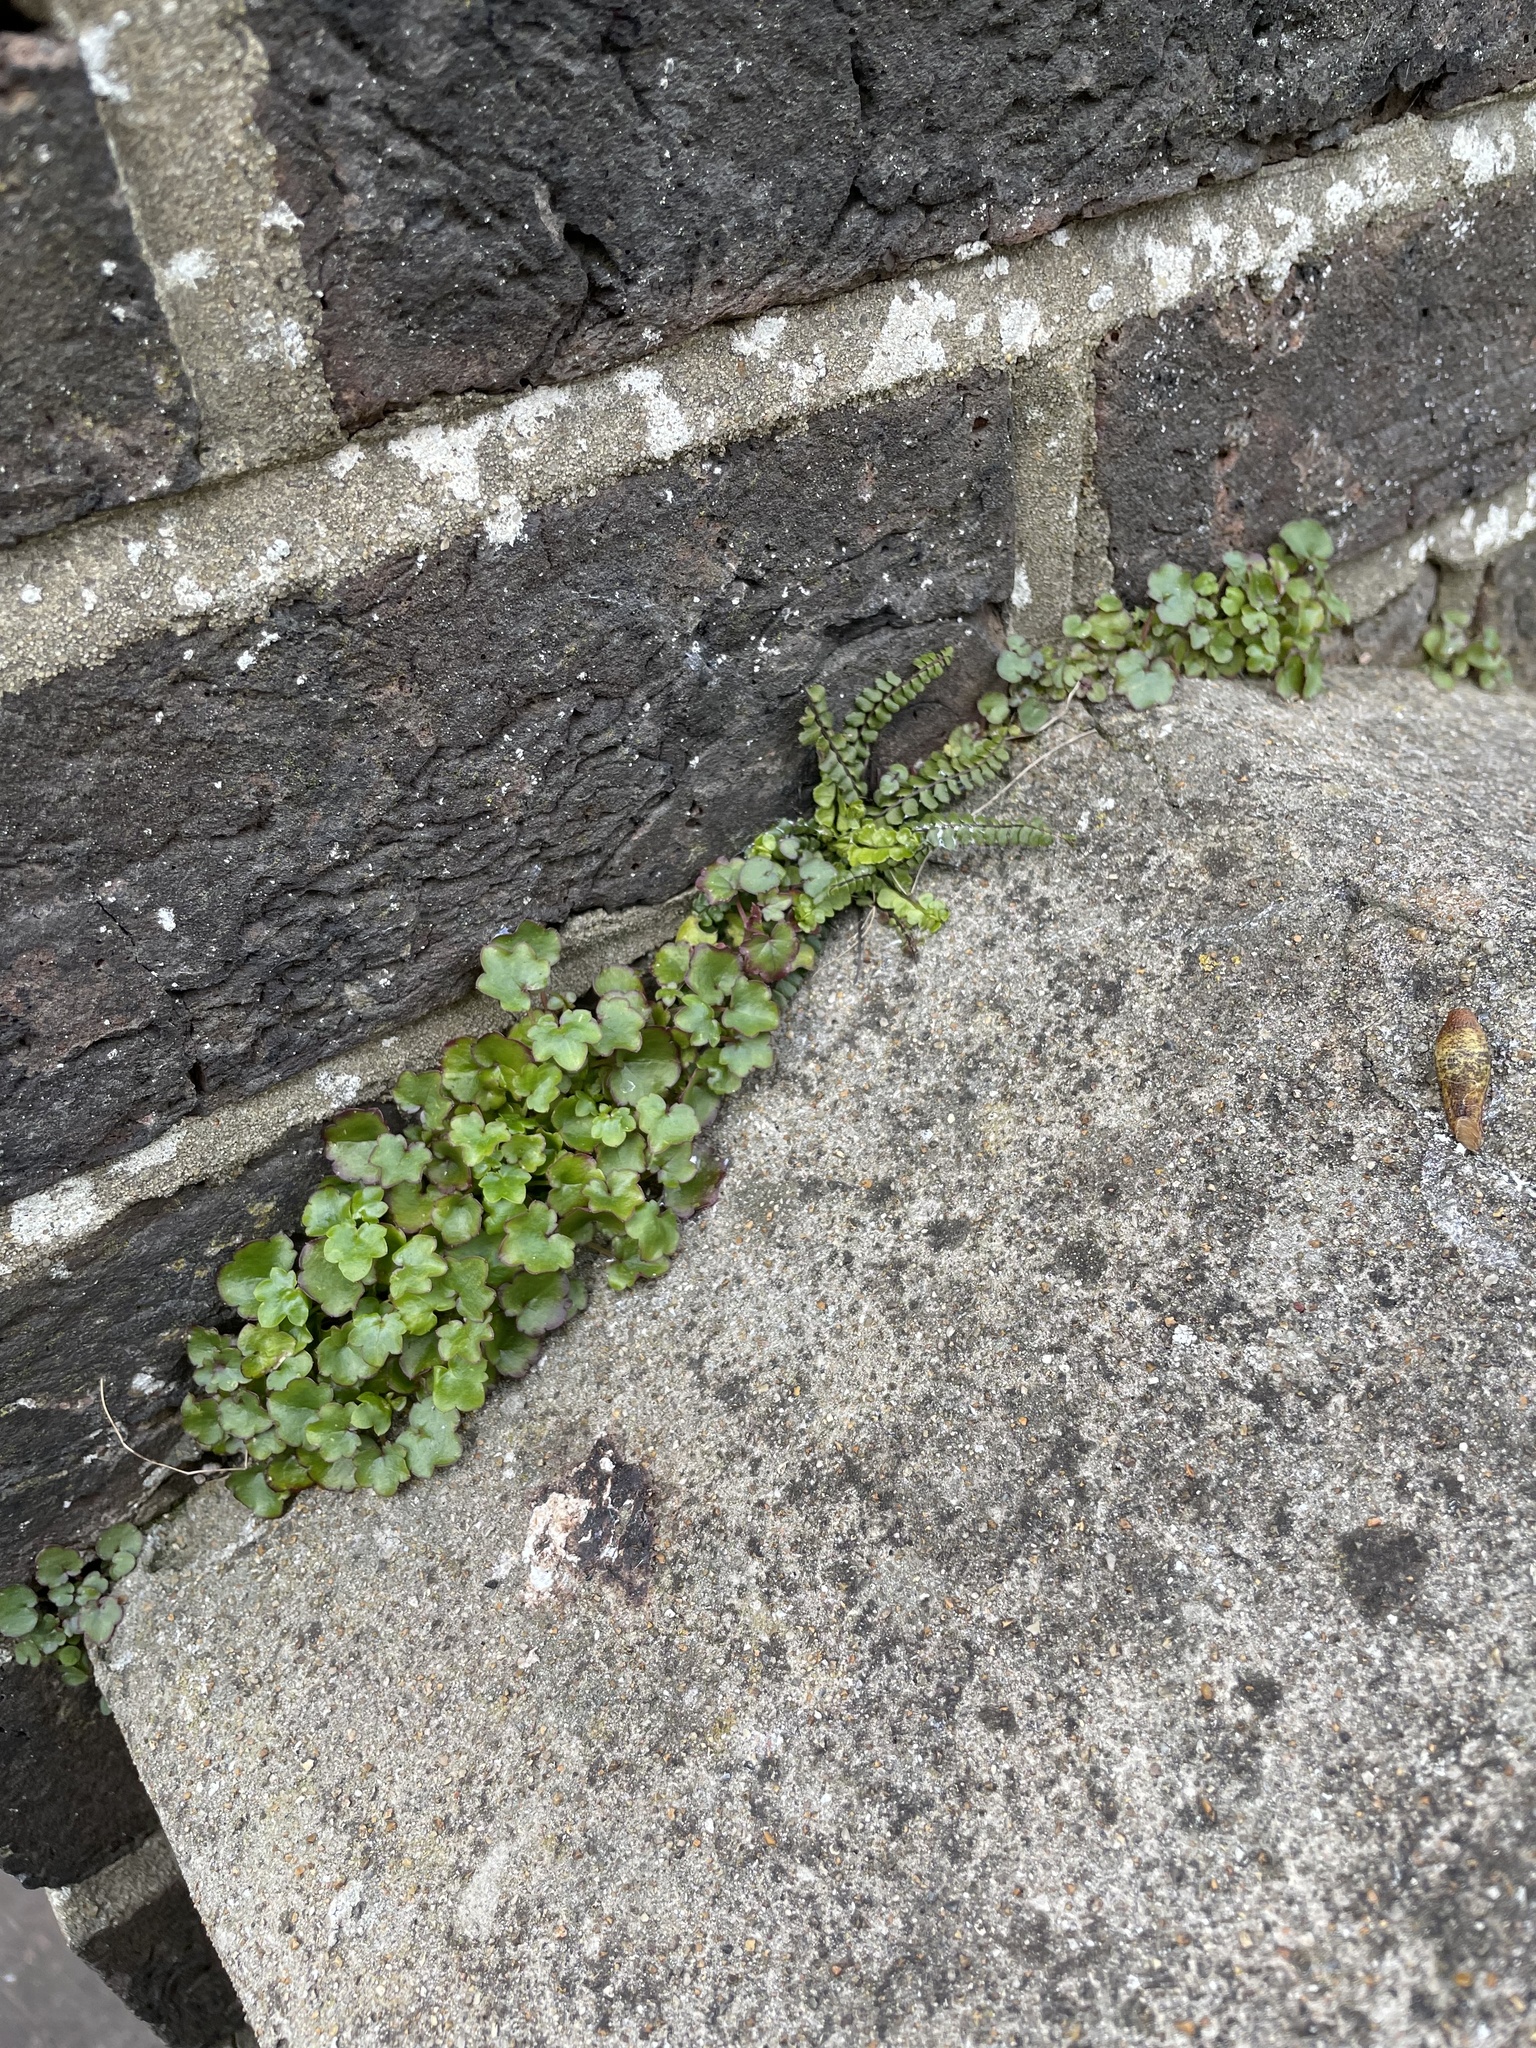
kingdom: Plantae
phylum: Tracheophyta
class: Magnoliopsida
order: Lamiales
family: Plantaginaceae
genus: Cymbalaria
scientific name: Cymbalaria muralis
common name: Ivy-leaved toadflax
